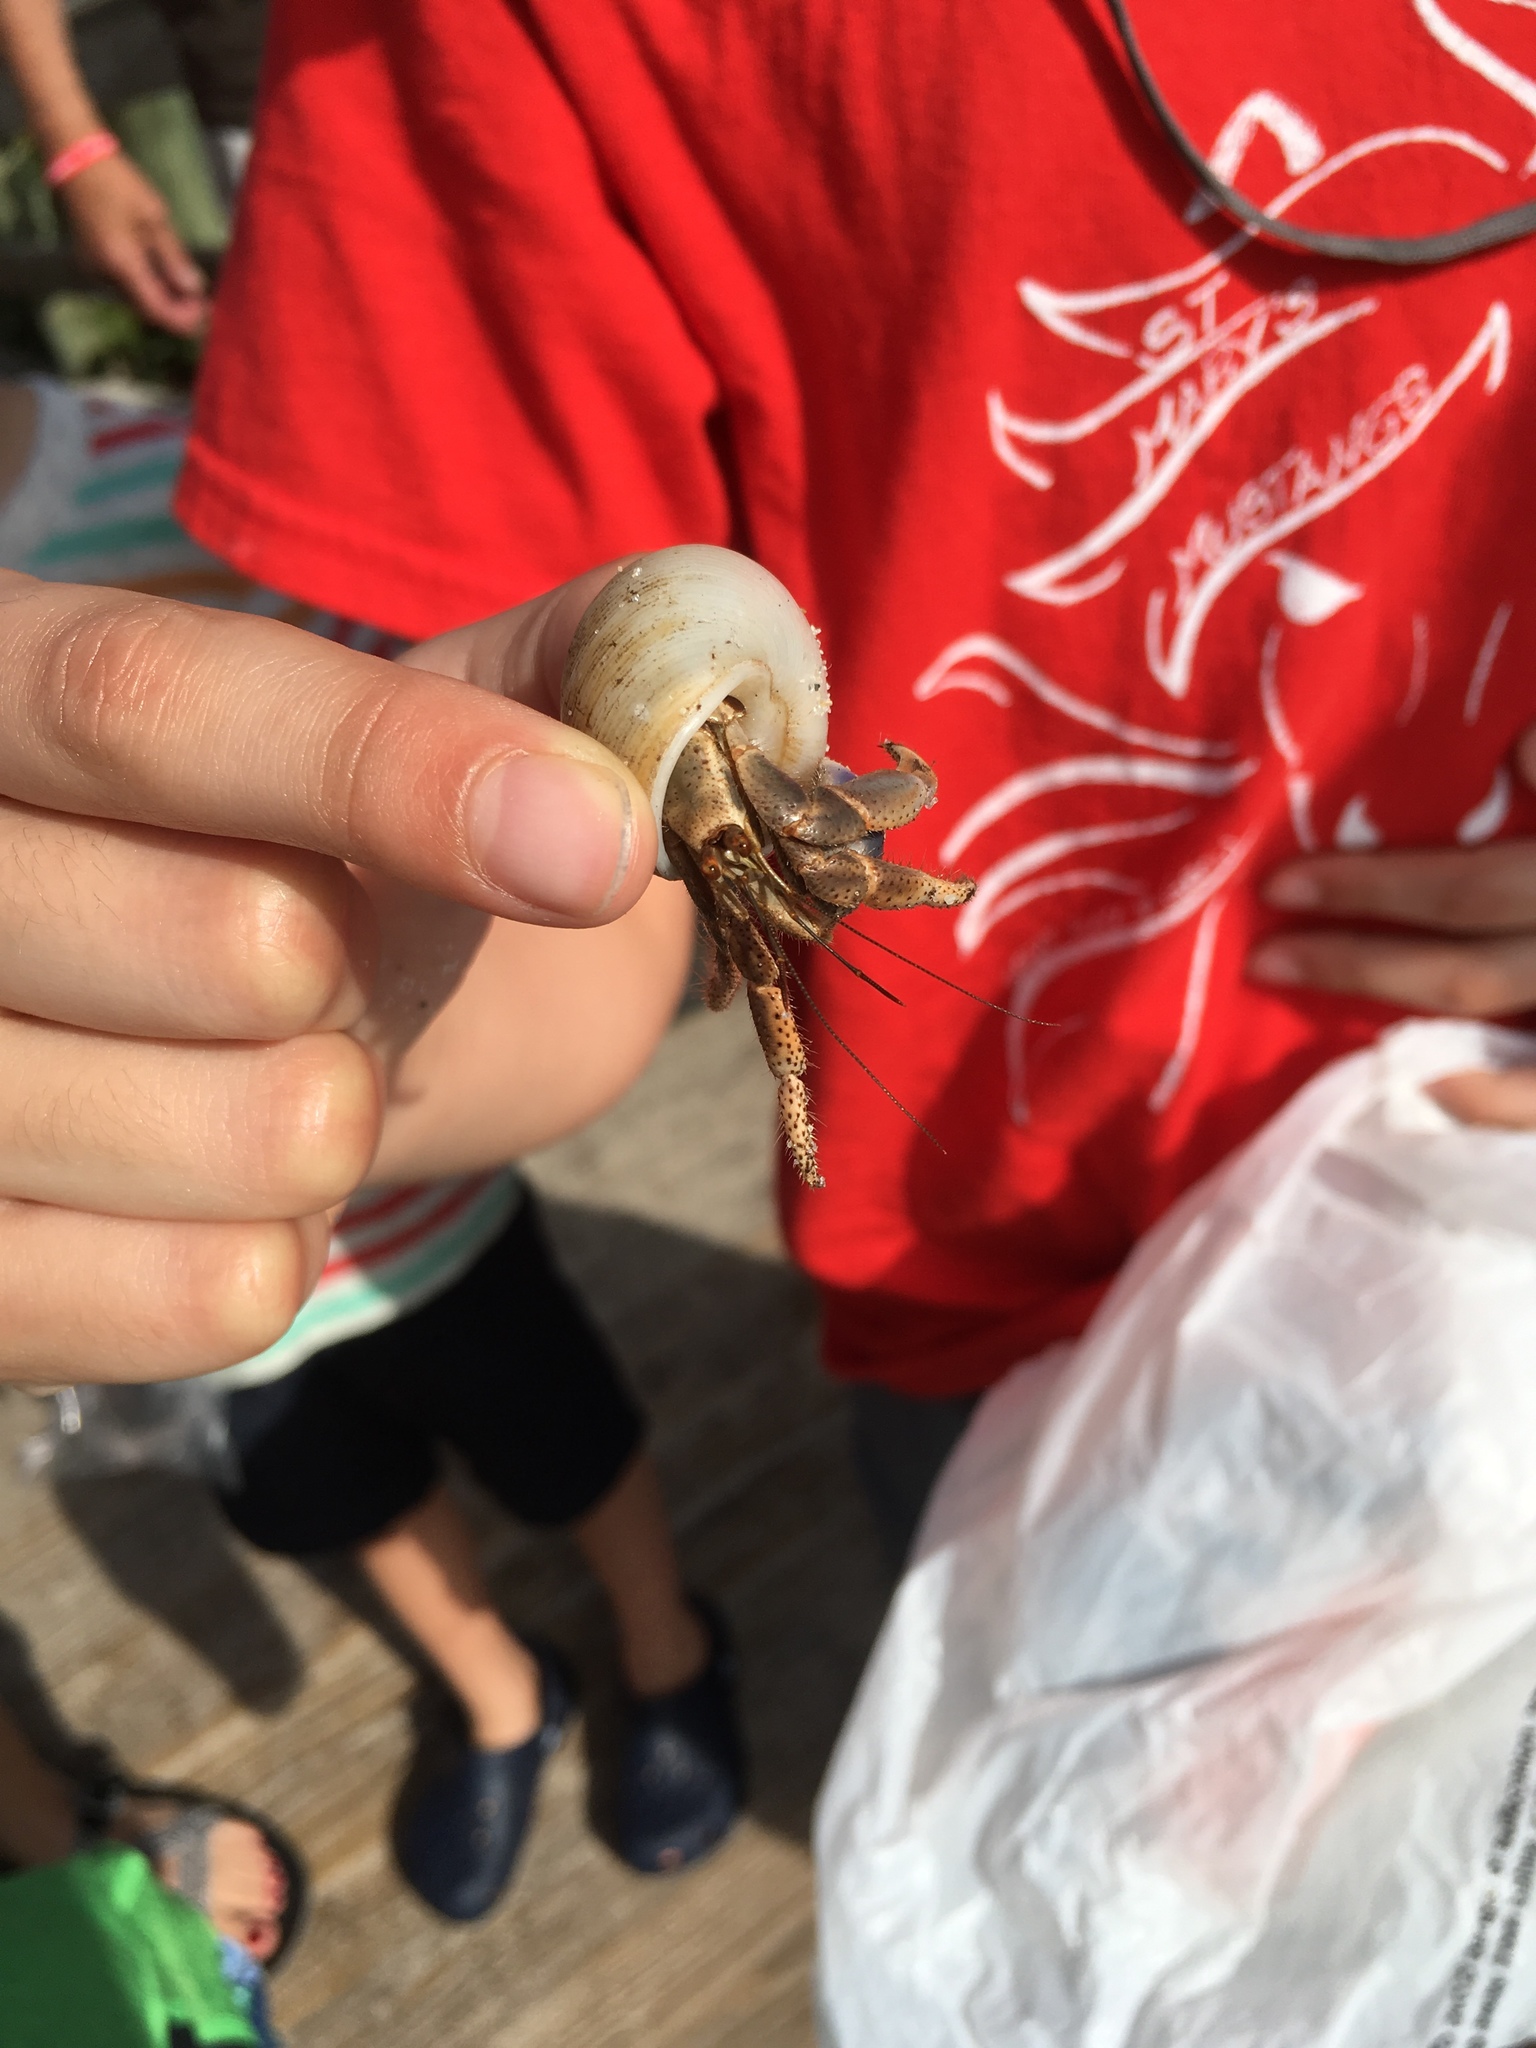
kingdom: Animalia
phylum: Arthropoda
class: Malacostraca
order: Decapoda
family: Coenobitidae
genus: Coenobita
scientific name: Coenobita clypeatus
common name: Caribbean hermit crab
